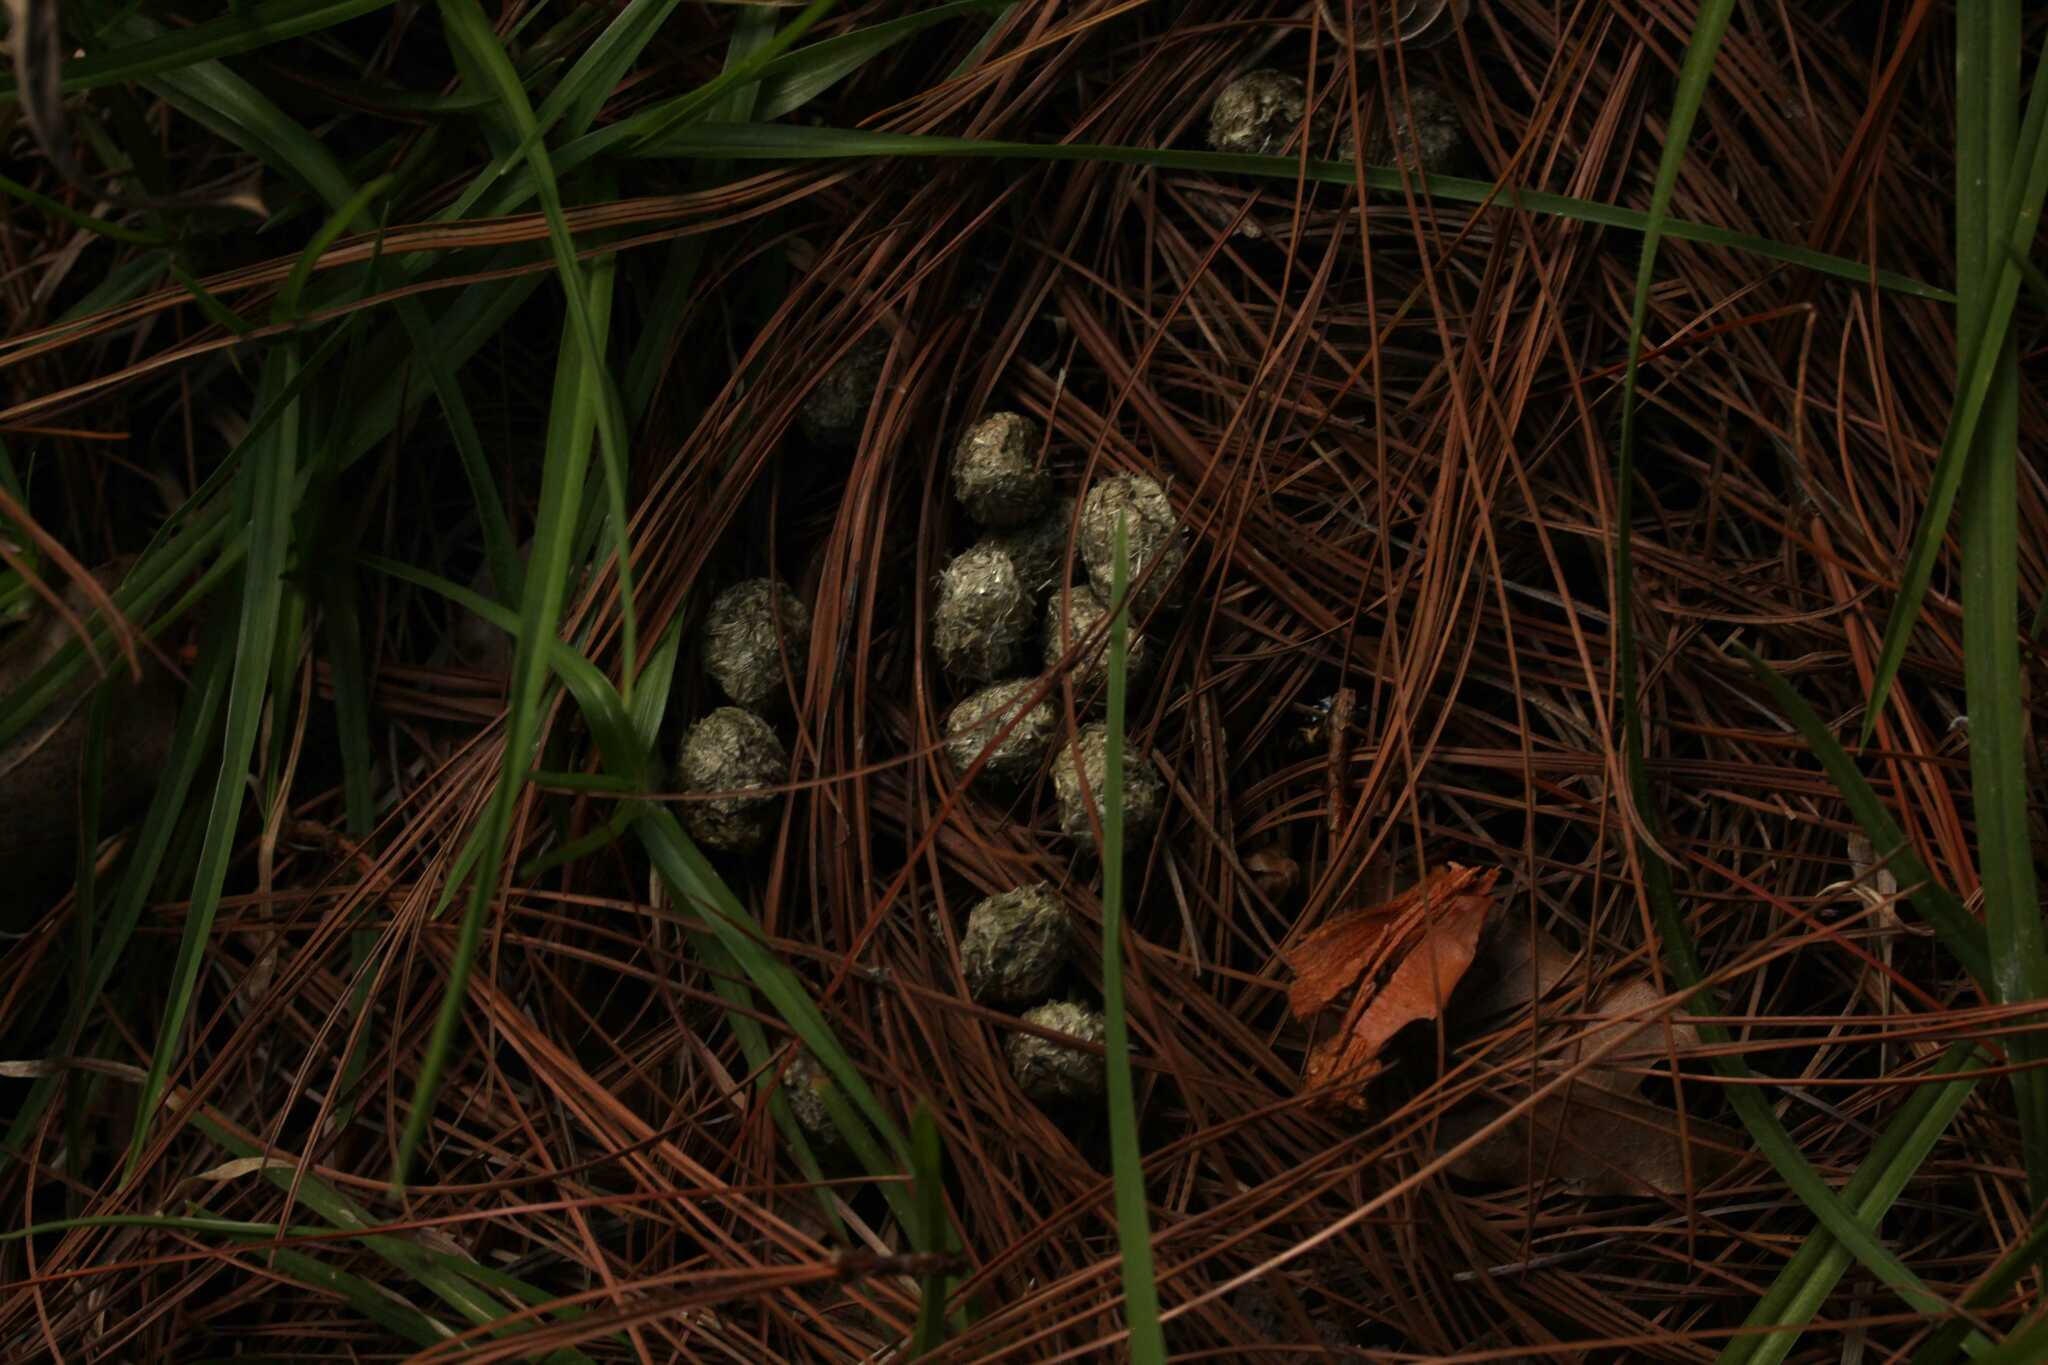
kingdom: Animalia
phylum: Chordata
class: Mammalia
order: Lagomorpha
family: Leporidae
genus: Sylvilagus
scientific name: Sylvilagus floridanus
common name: Eastern cottontail
